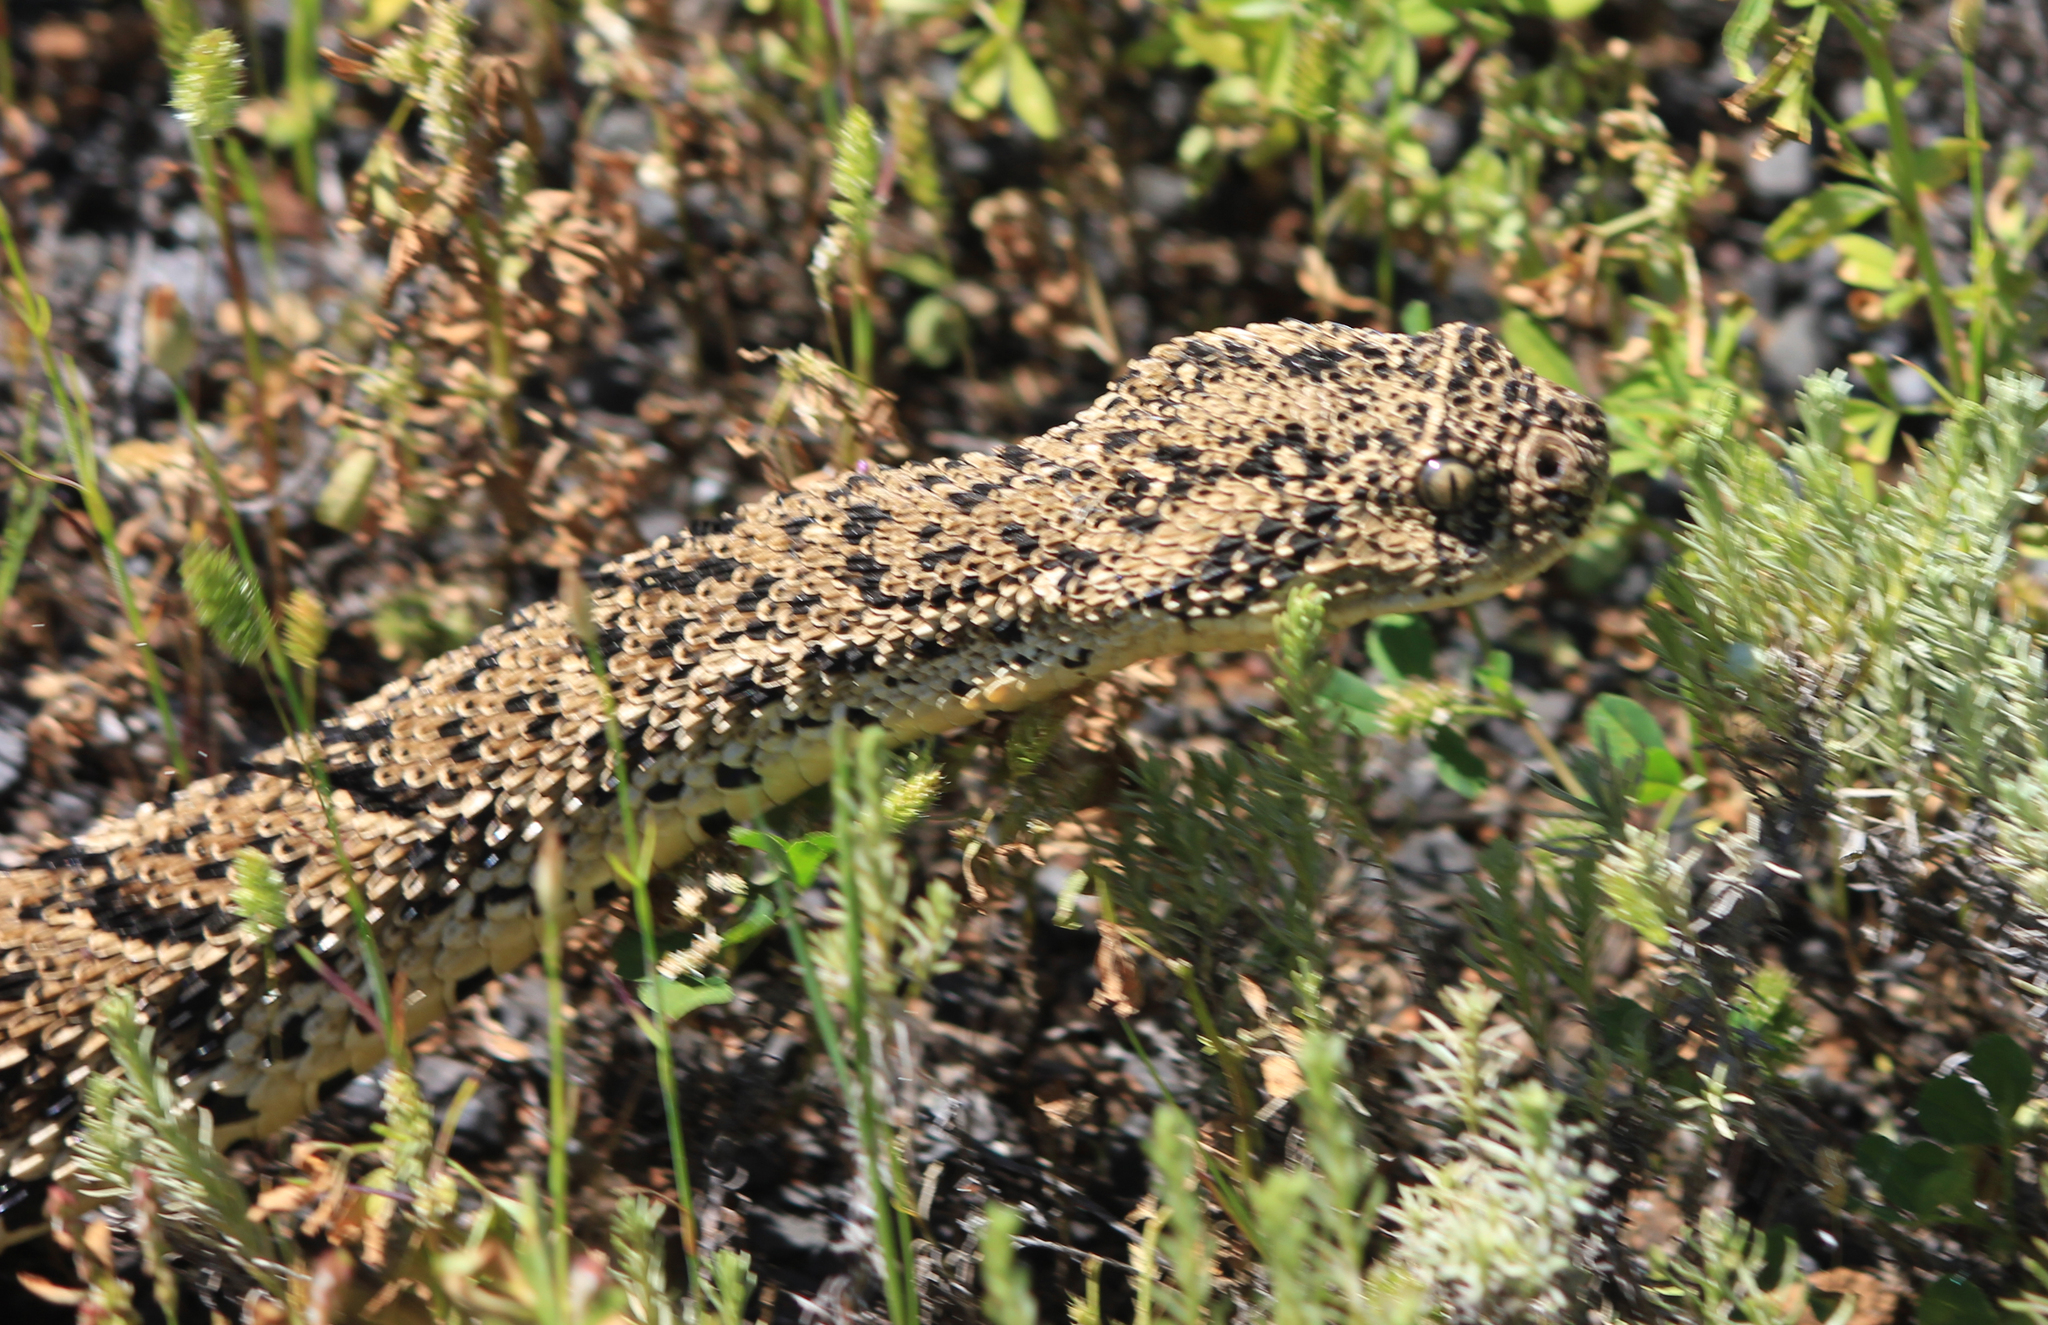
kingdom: Animalia
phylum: Chordata
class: Squamata
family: Viperidae
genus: Bitis
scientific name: Bitis arietans
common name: Puff adder
